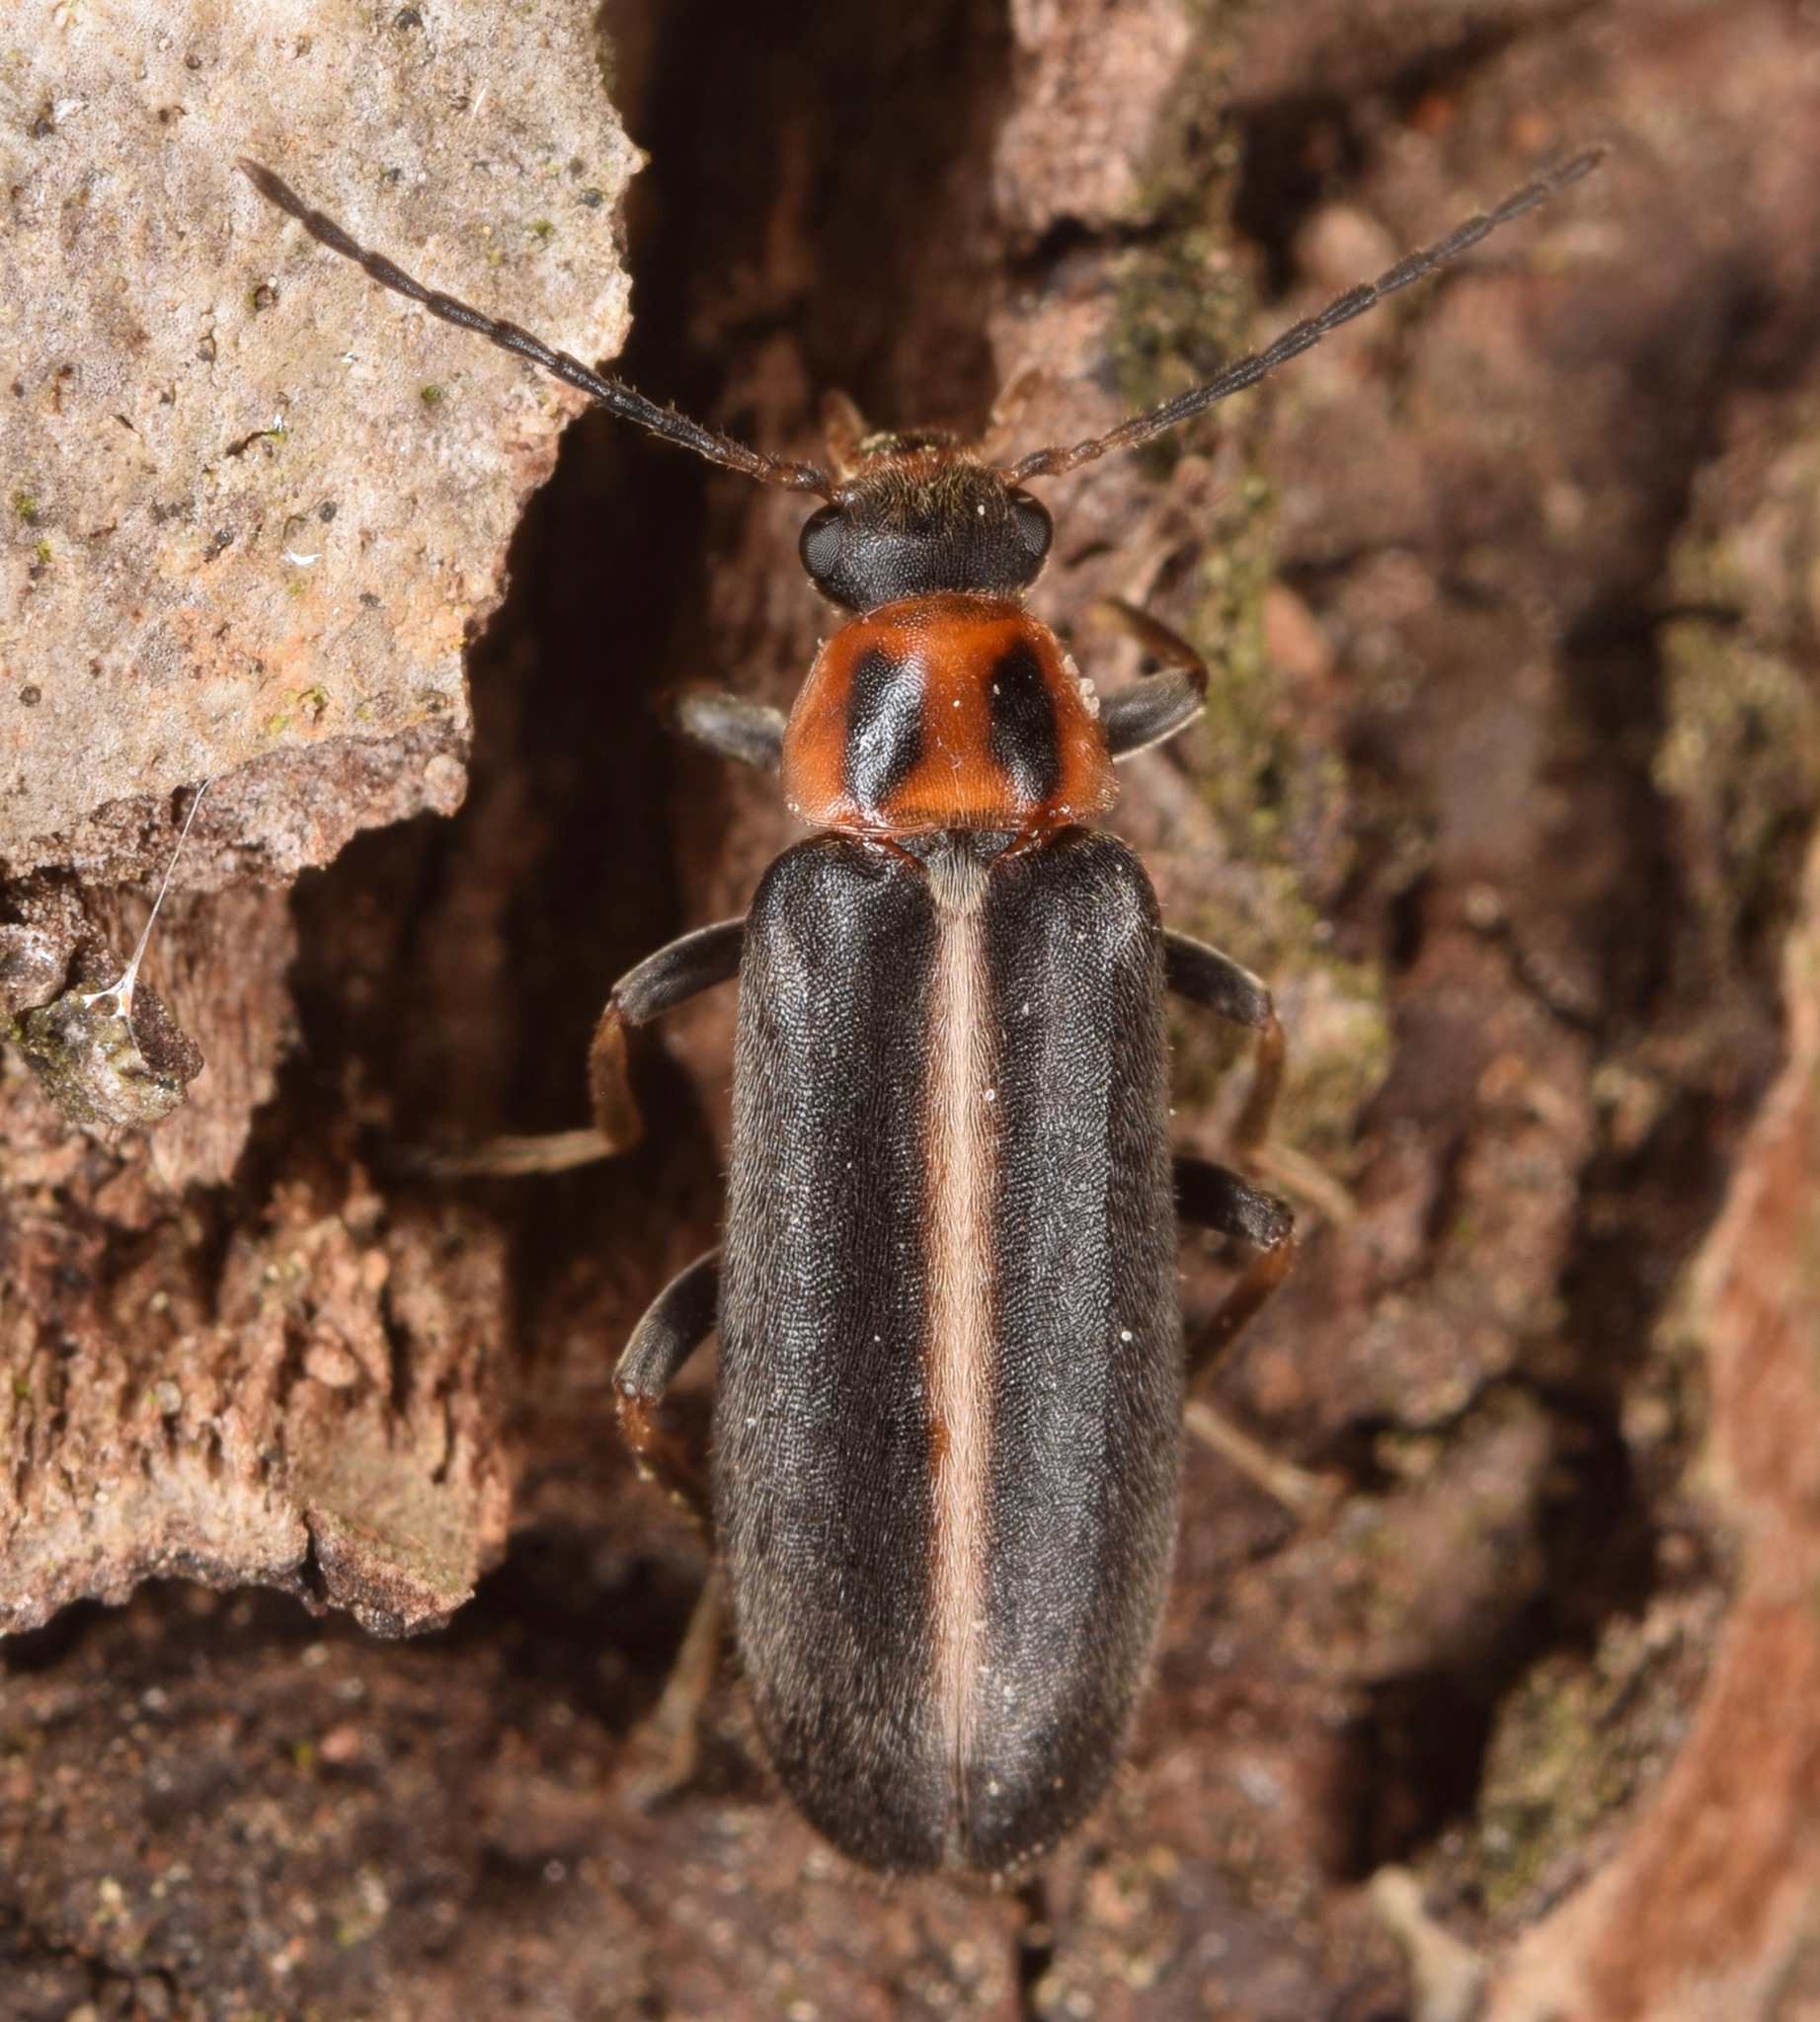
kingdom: Animalia
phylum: Arthropoda
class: Insecta
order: Coleoptera
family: Melandryidae
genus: Osphya
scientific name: Osphya varians
